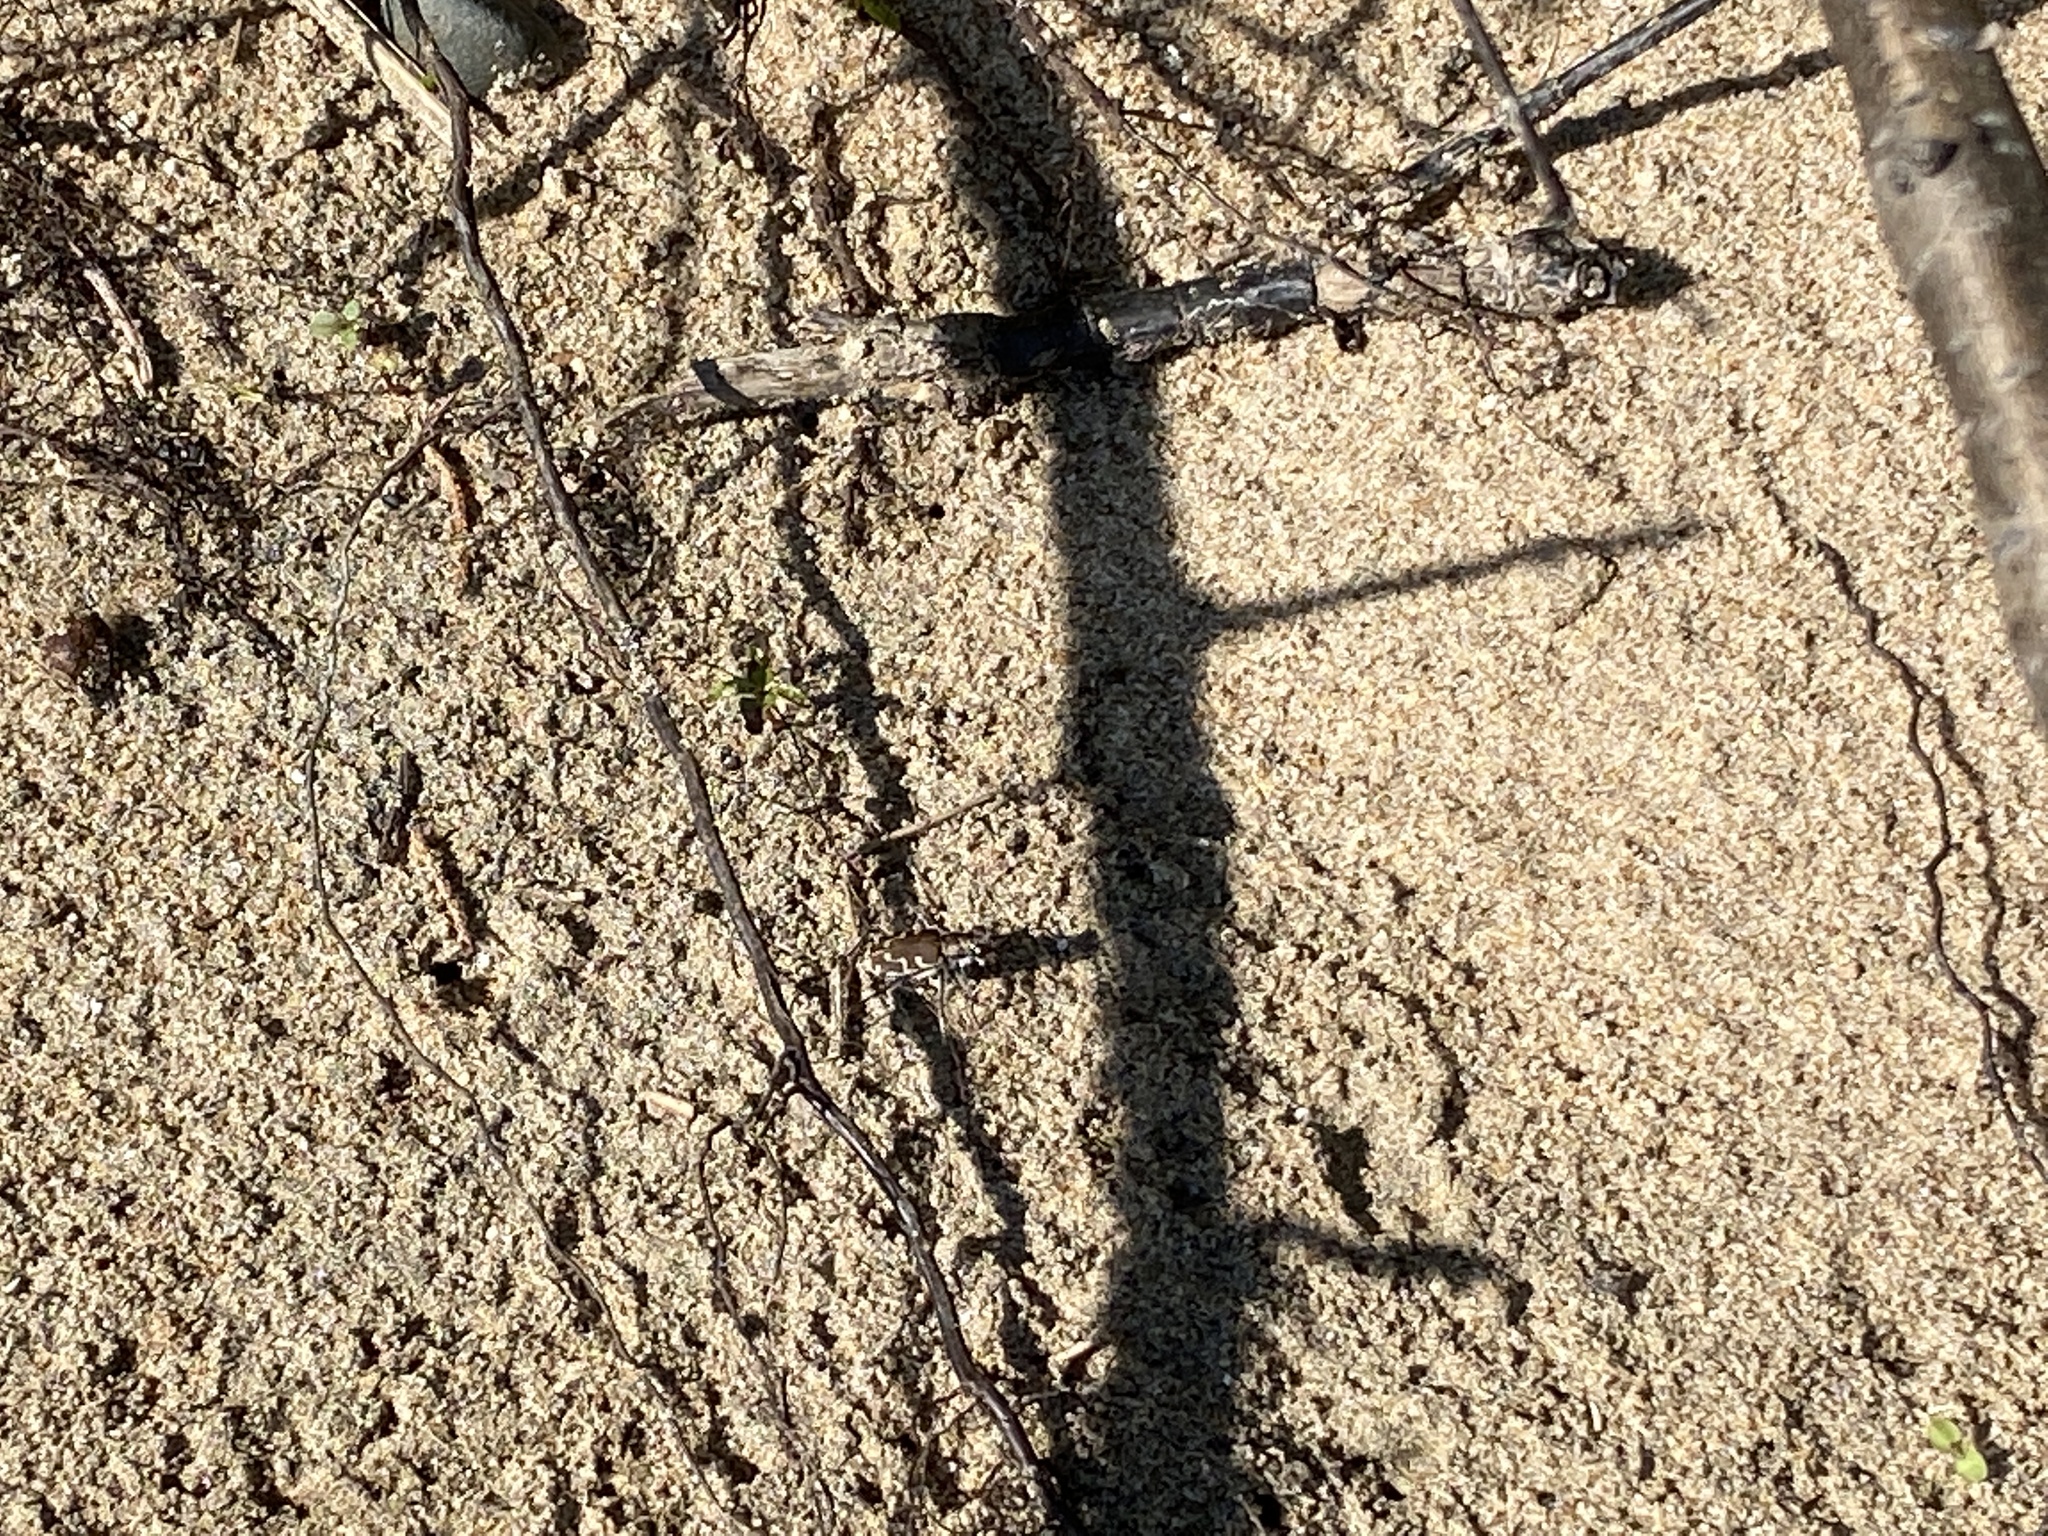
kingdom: Animalia
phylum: Arthropoda
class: Insecta
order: Coleoptera
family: Carabidae
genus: Cicindela
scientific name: Cicindela repanda
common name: Bronzed tiger beetle
